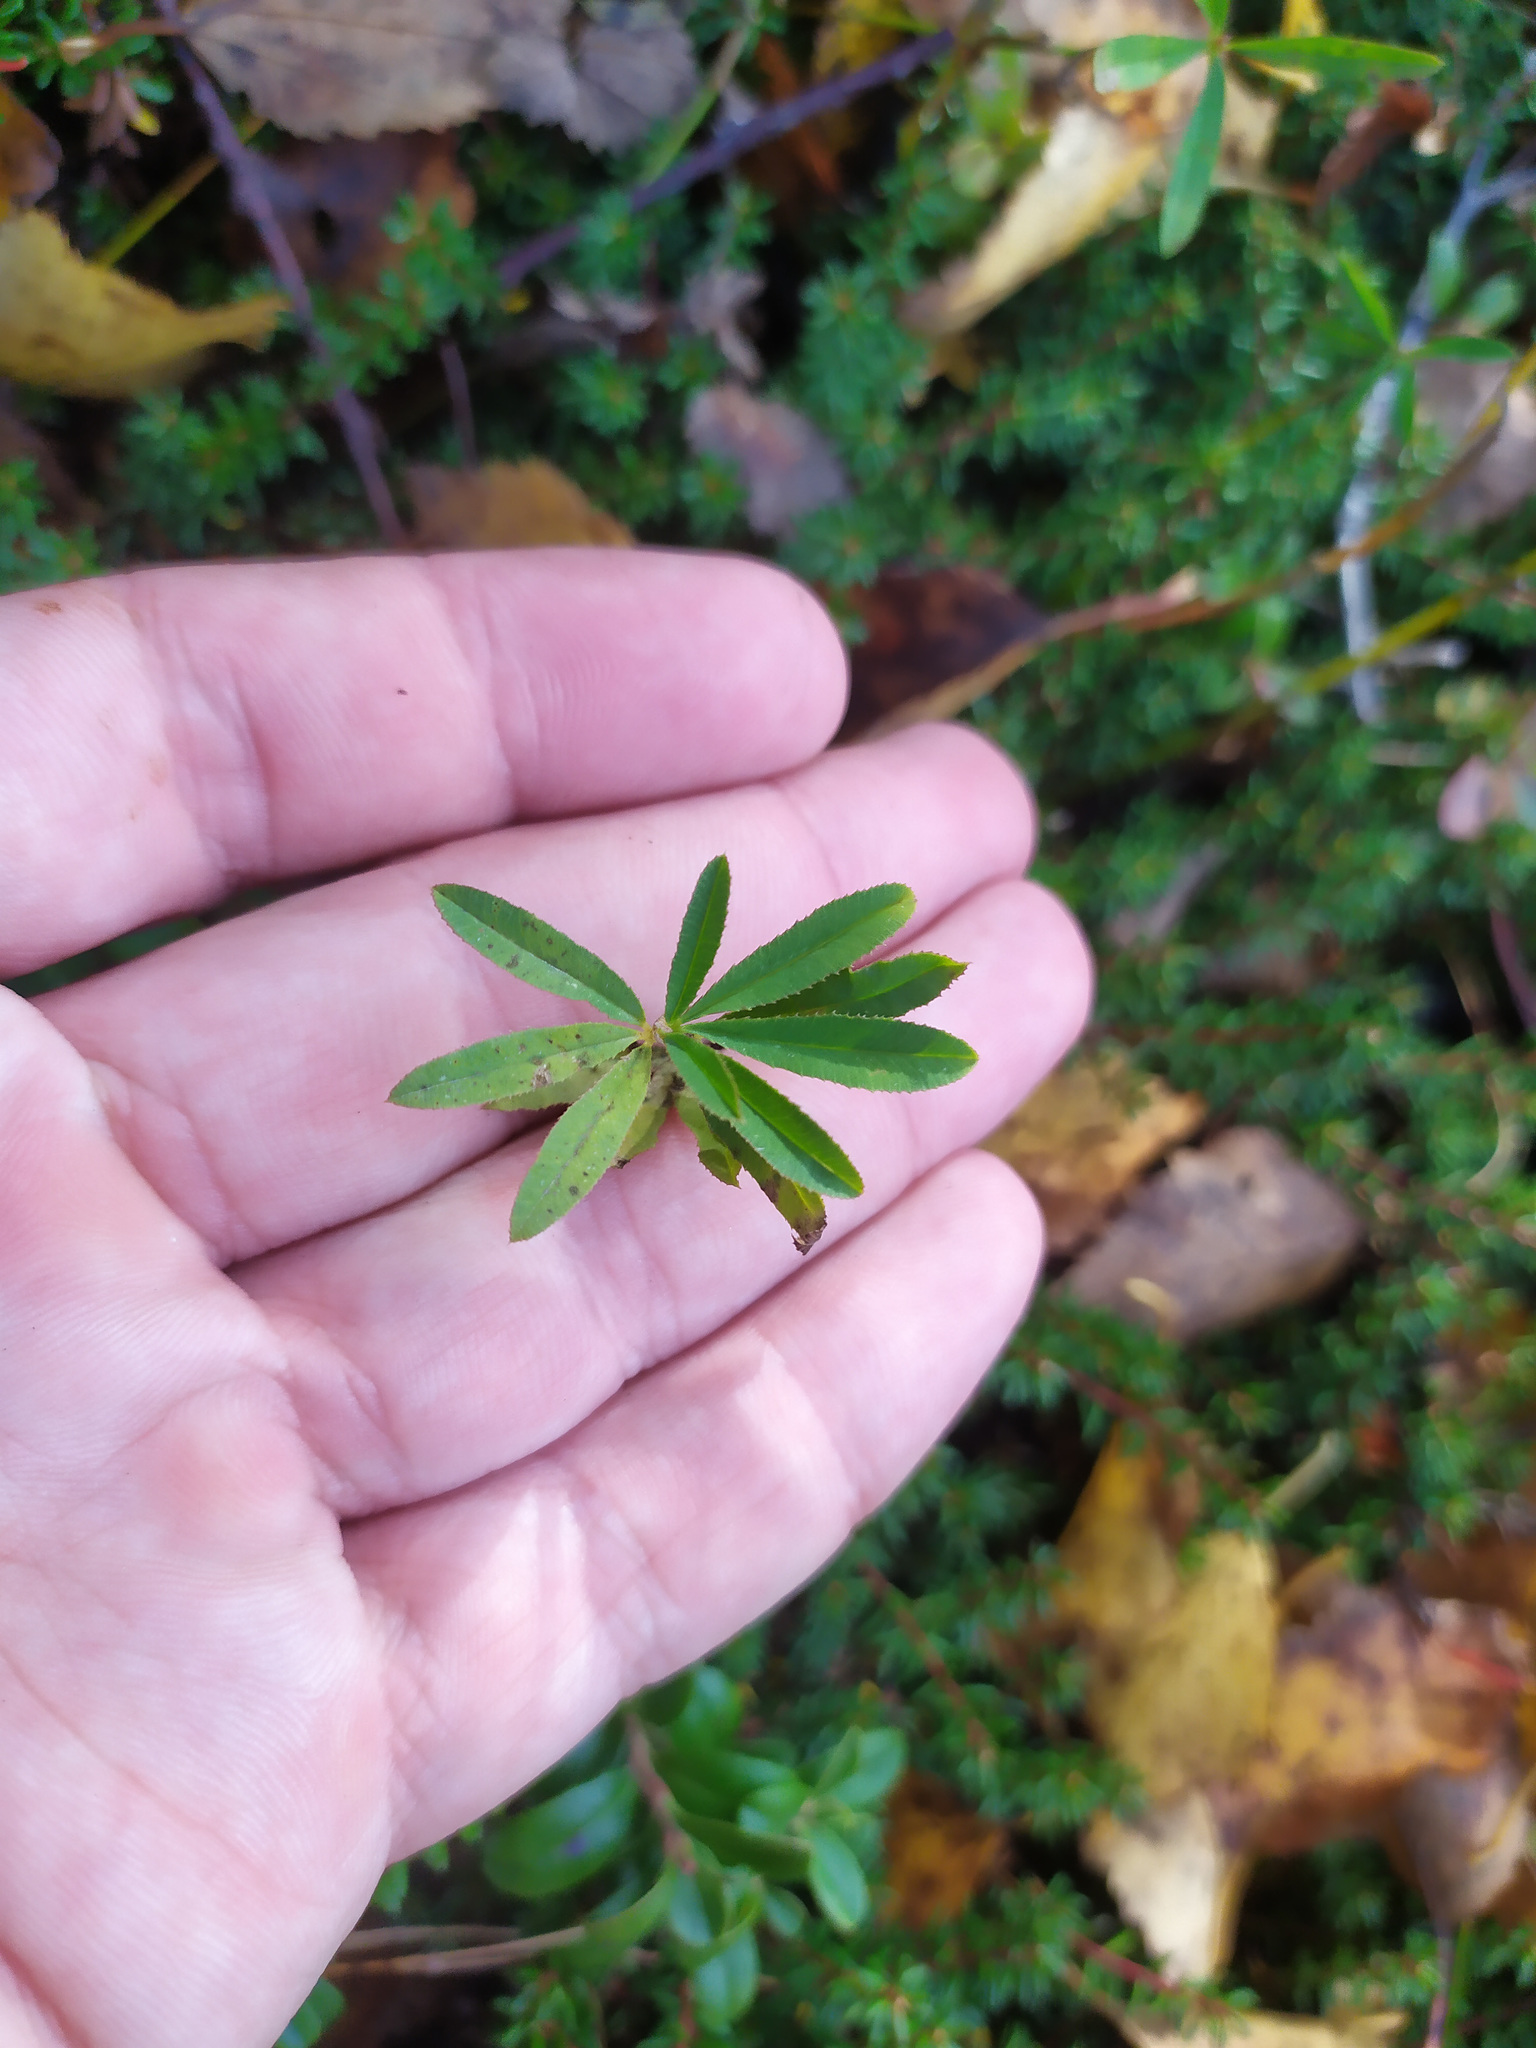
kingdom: Plantae
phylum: Tracheophyta
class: Magnoliopsida
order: Fabales
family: Fabaceae
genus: Trifolium
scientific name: Trifolium lupinaster
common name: Lupine clover
